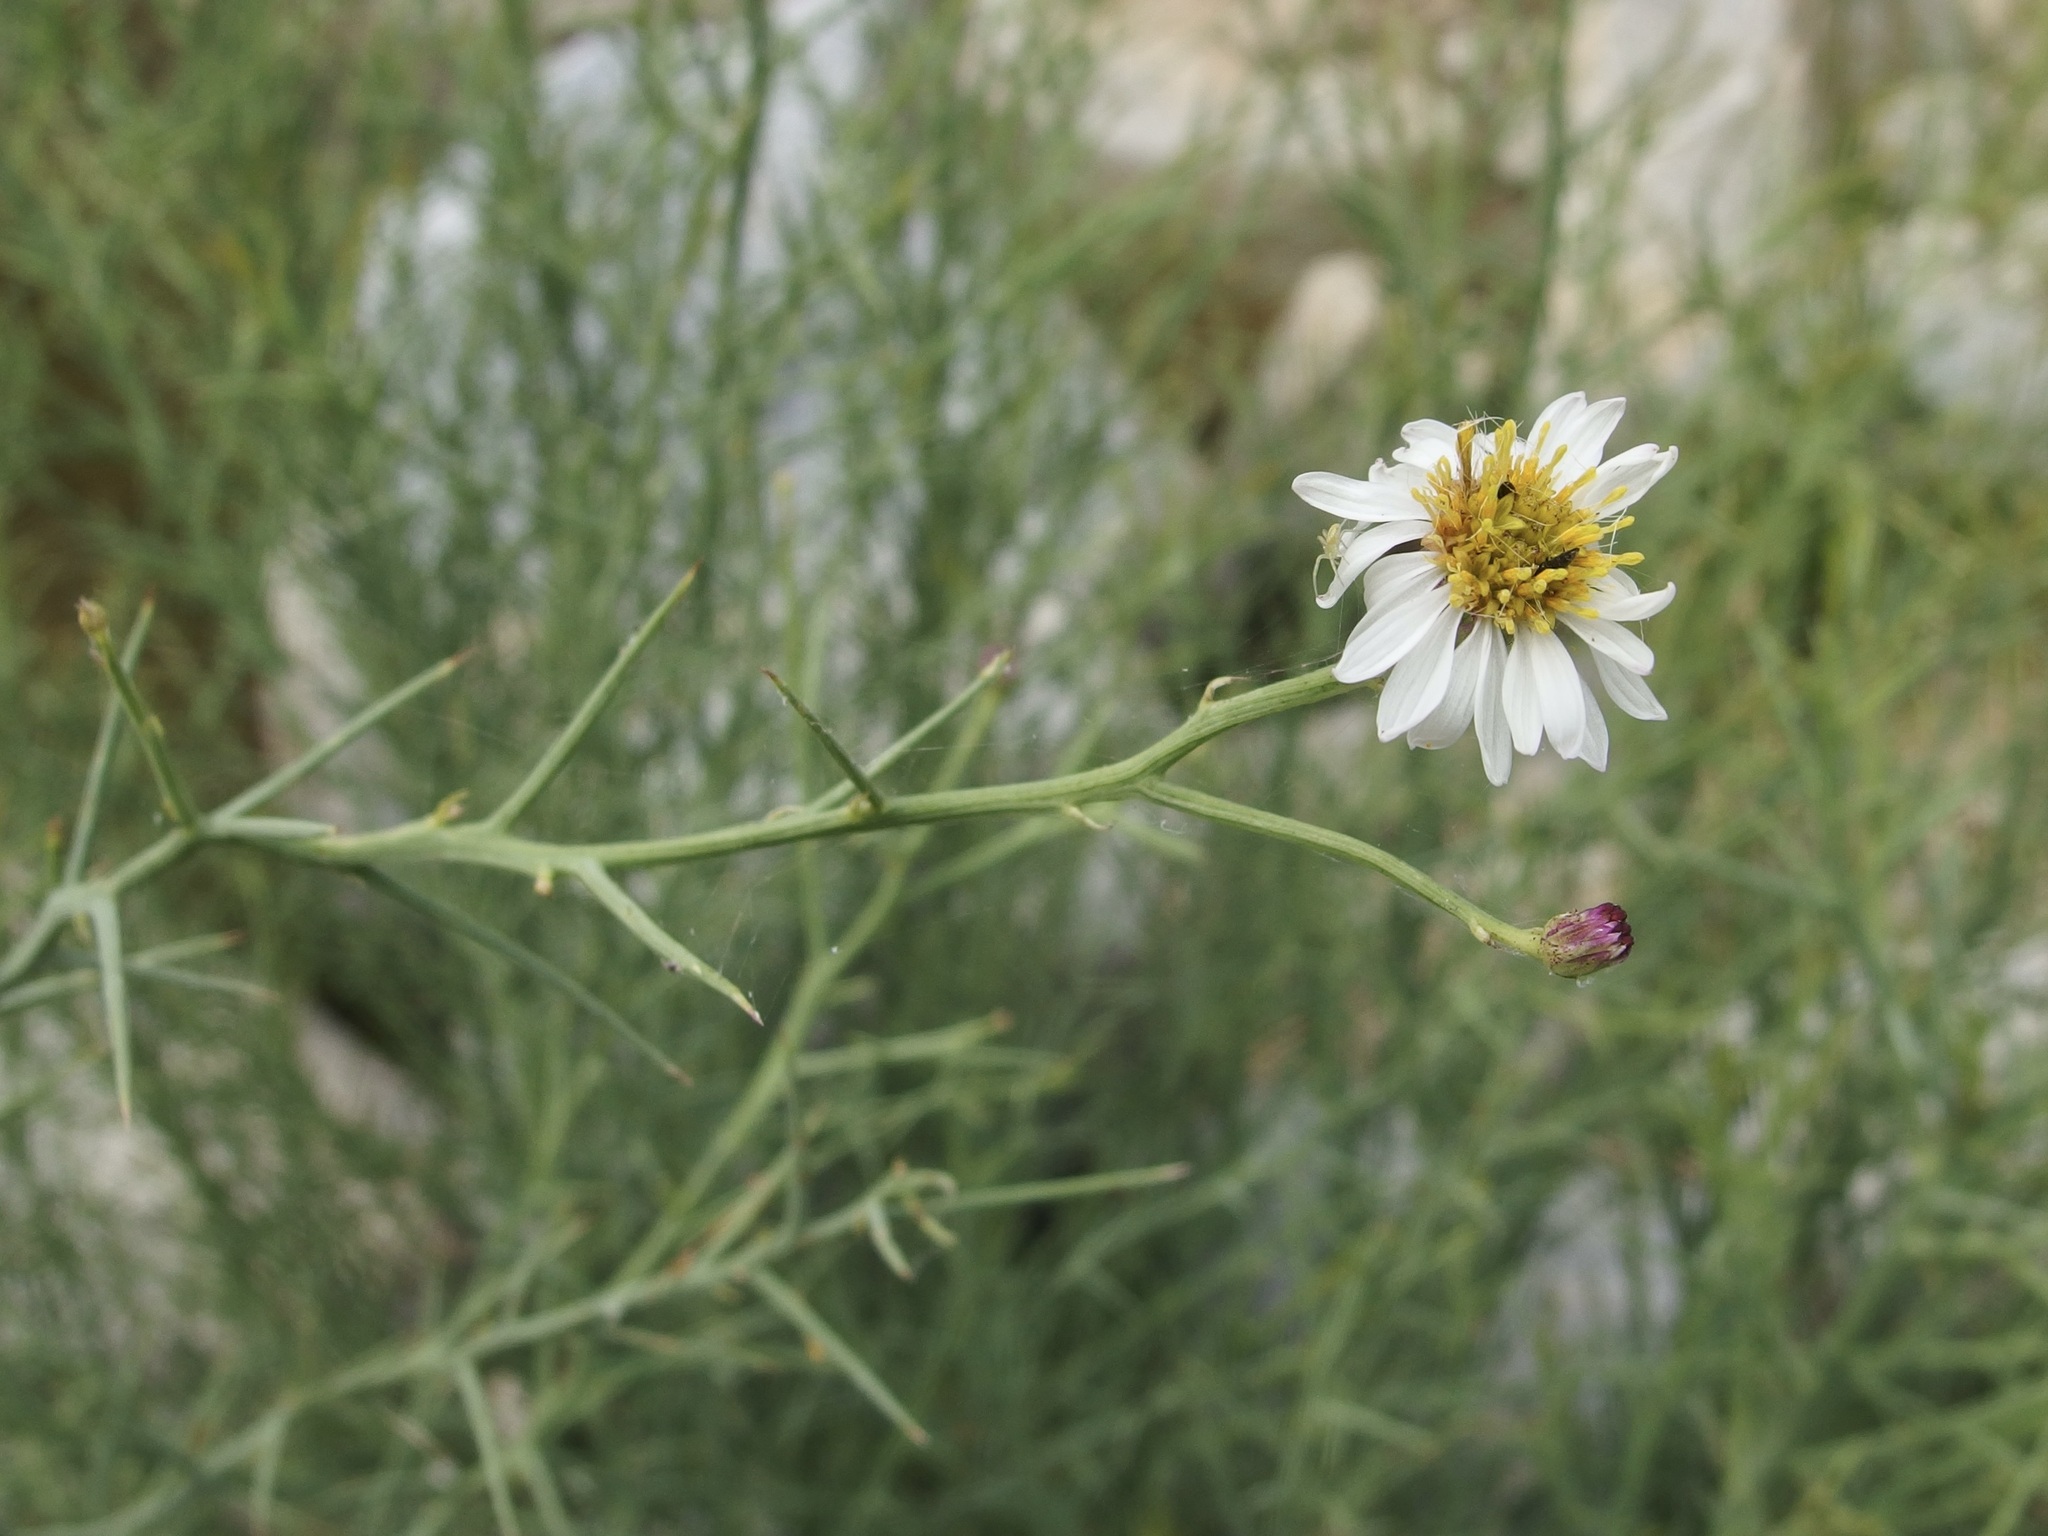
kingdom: Plantae
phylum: Tracheophyta
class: Magnoliopsida
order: Asterales
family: Asteraceae
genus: Chloracantha
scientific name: Chloracantha spinosissima
